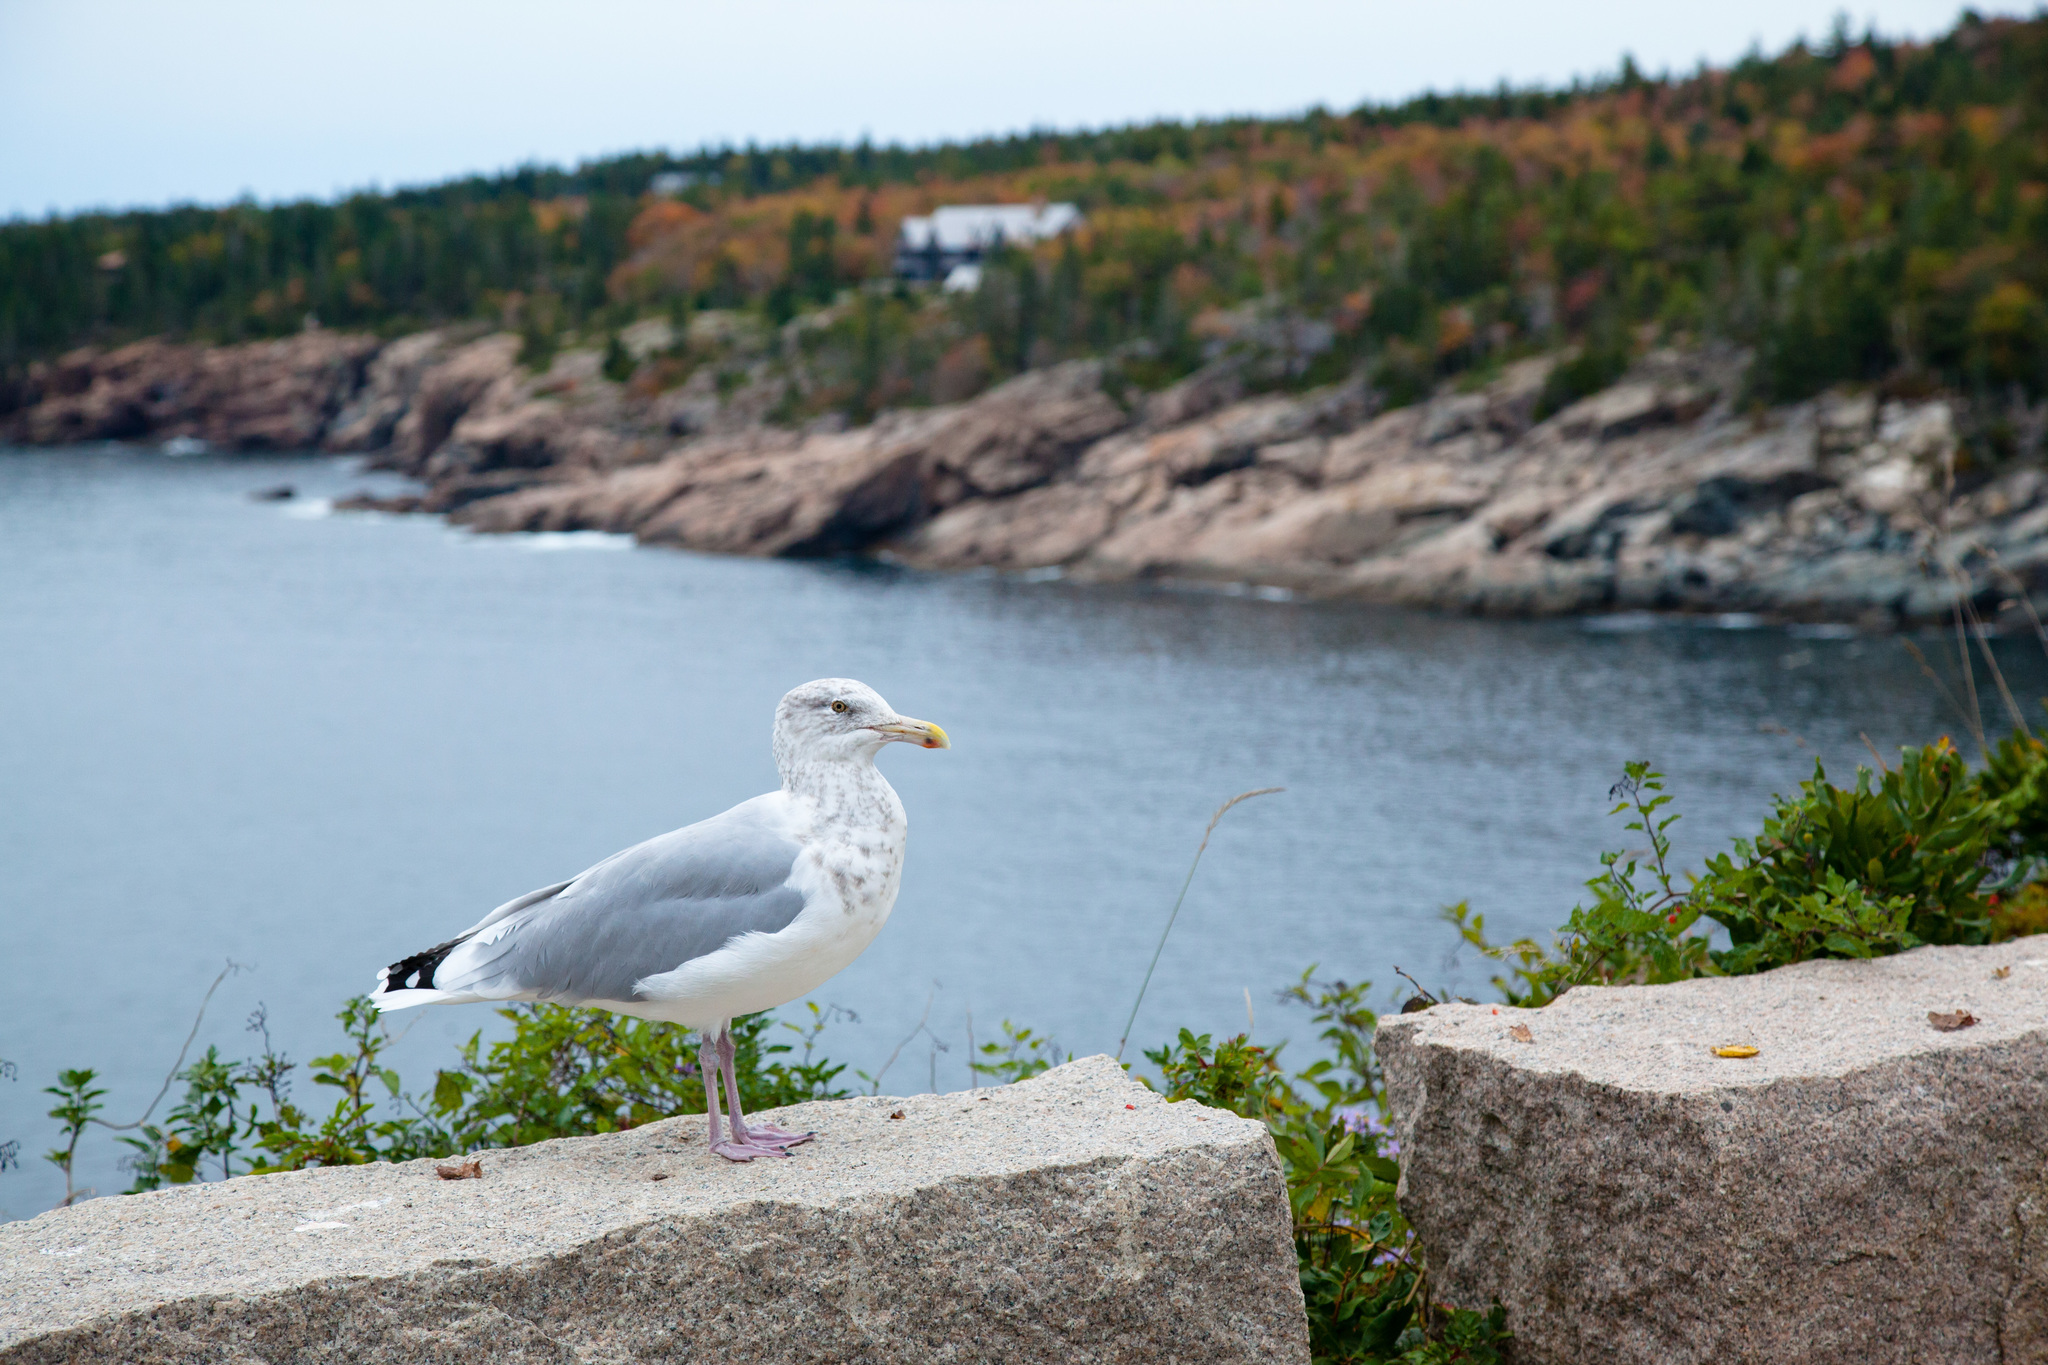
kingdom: Animalia
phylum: Chordata
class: Aves
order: Charadriiformes
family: Laridae
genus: Larus
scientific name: Larus argentatus
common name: Herring gull
